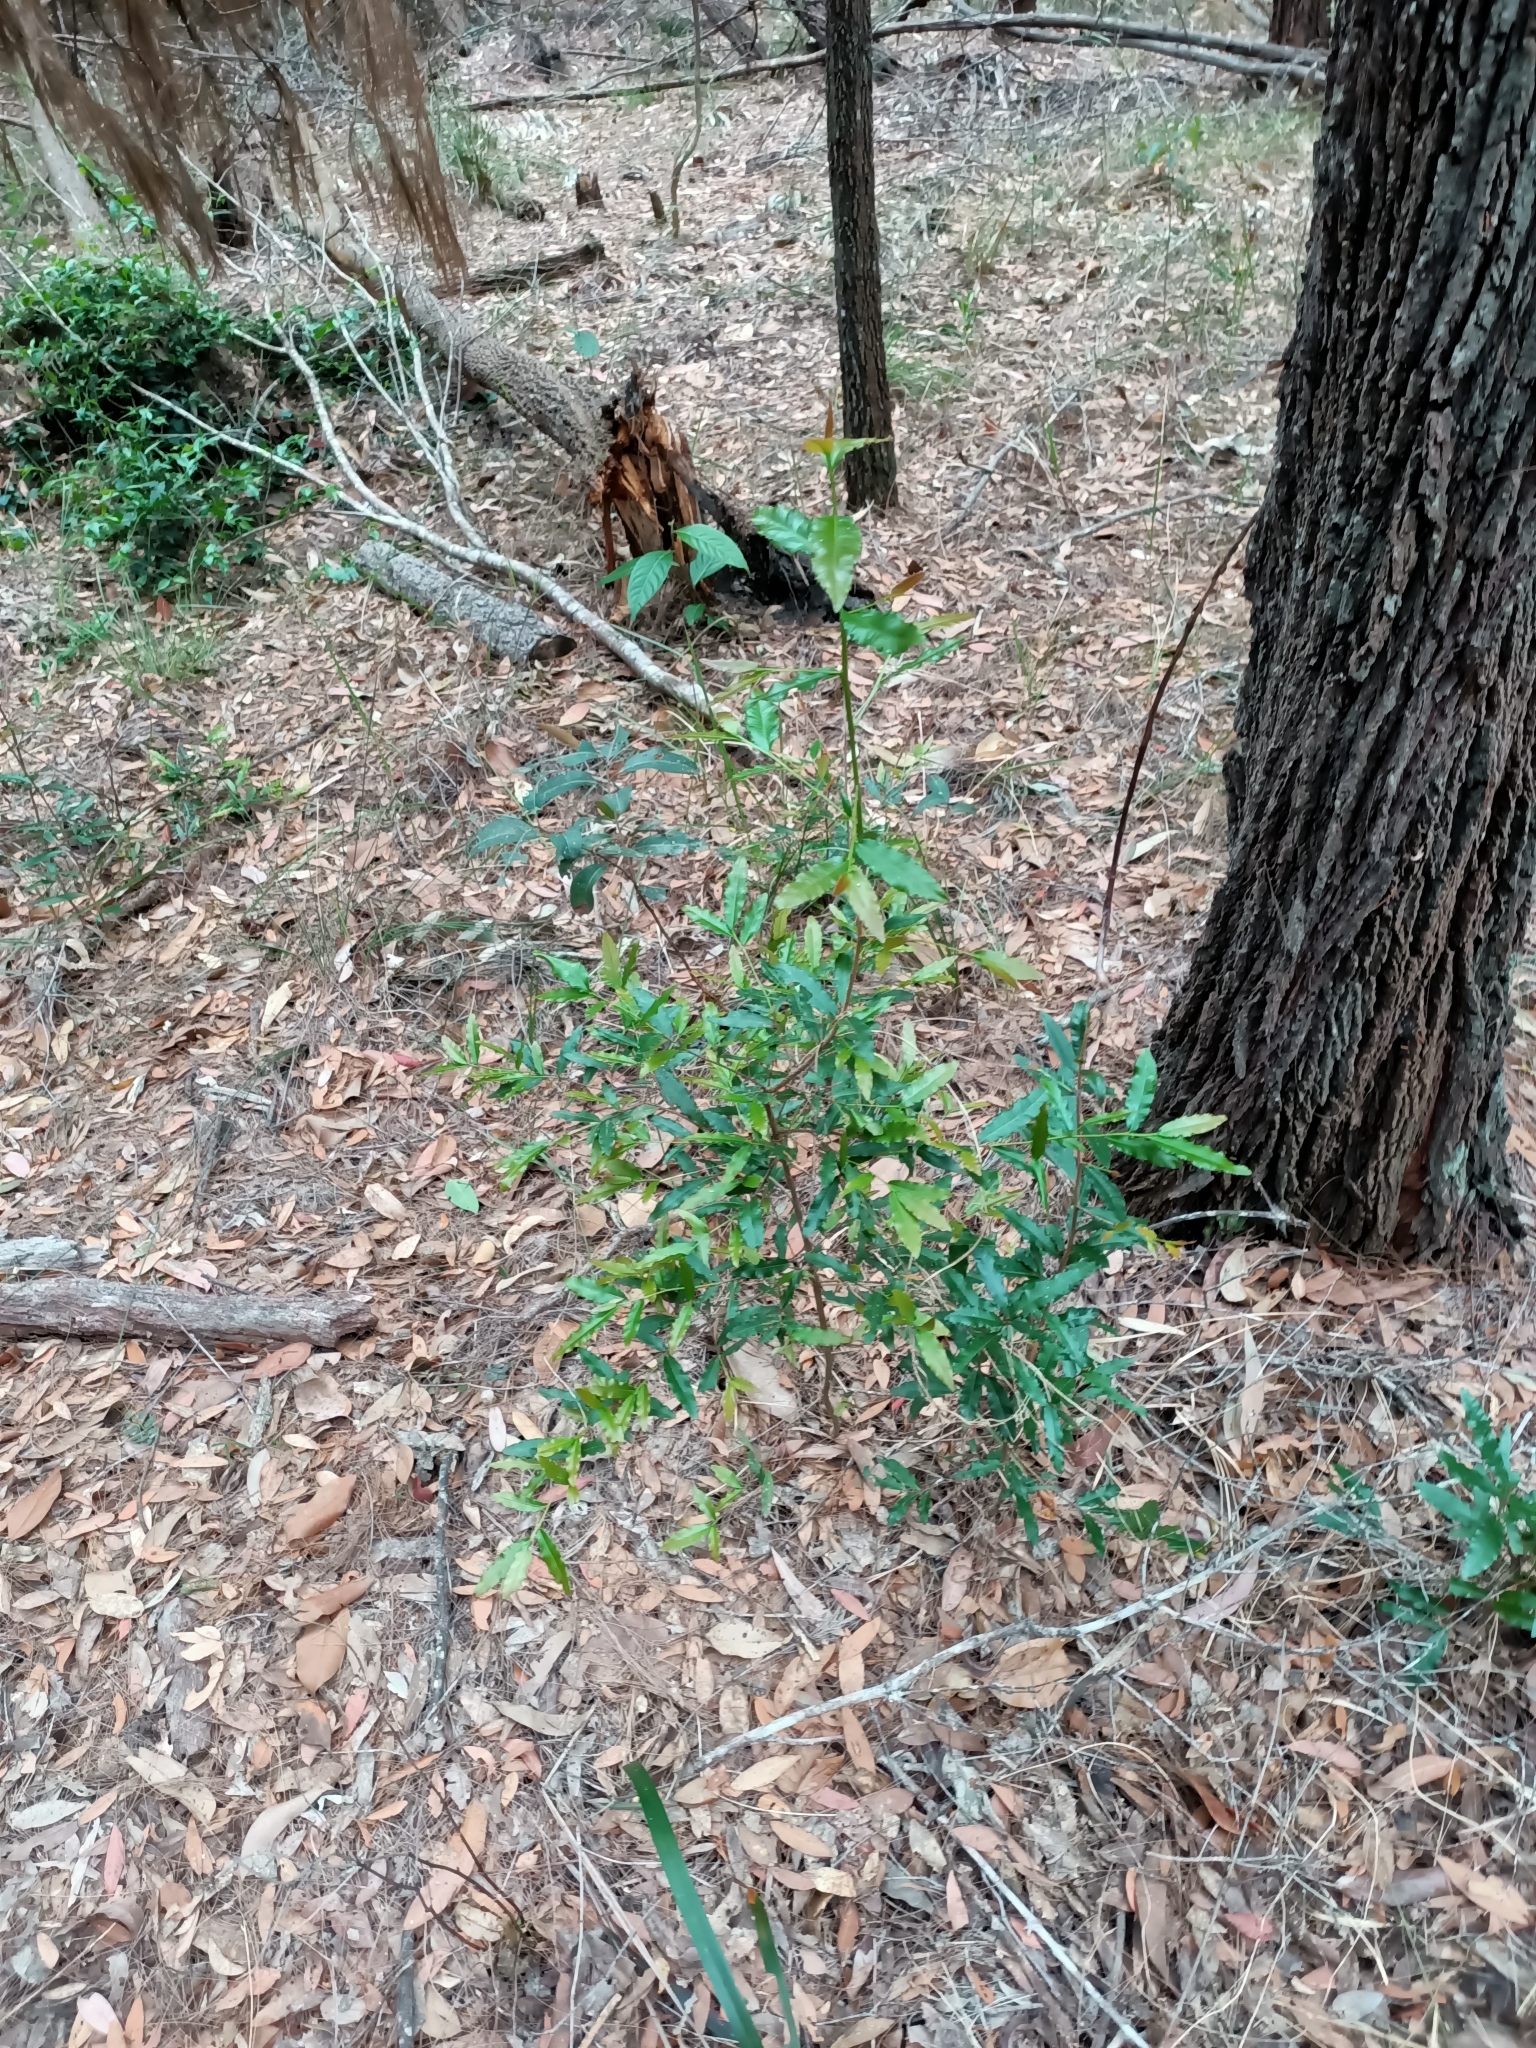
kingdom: Plantae
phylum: Tracheophyta
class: Magnoliopsida
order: Malpighiales
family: Ochnaceae
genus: Ochna
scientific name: Ochna serrulata
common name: Mickey mouse plant
